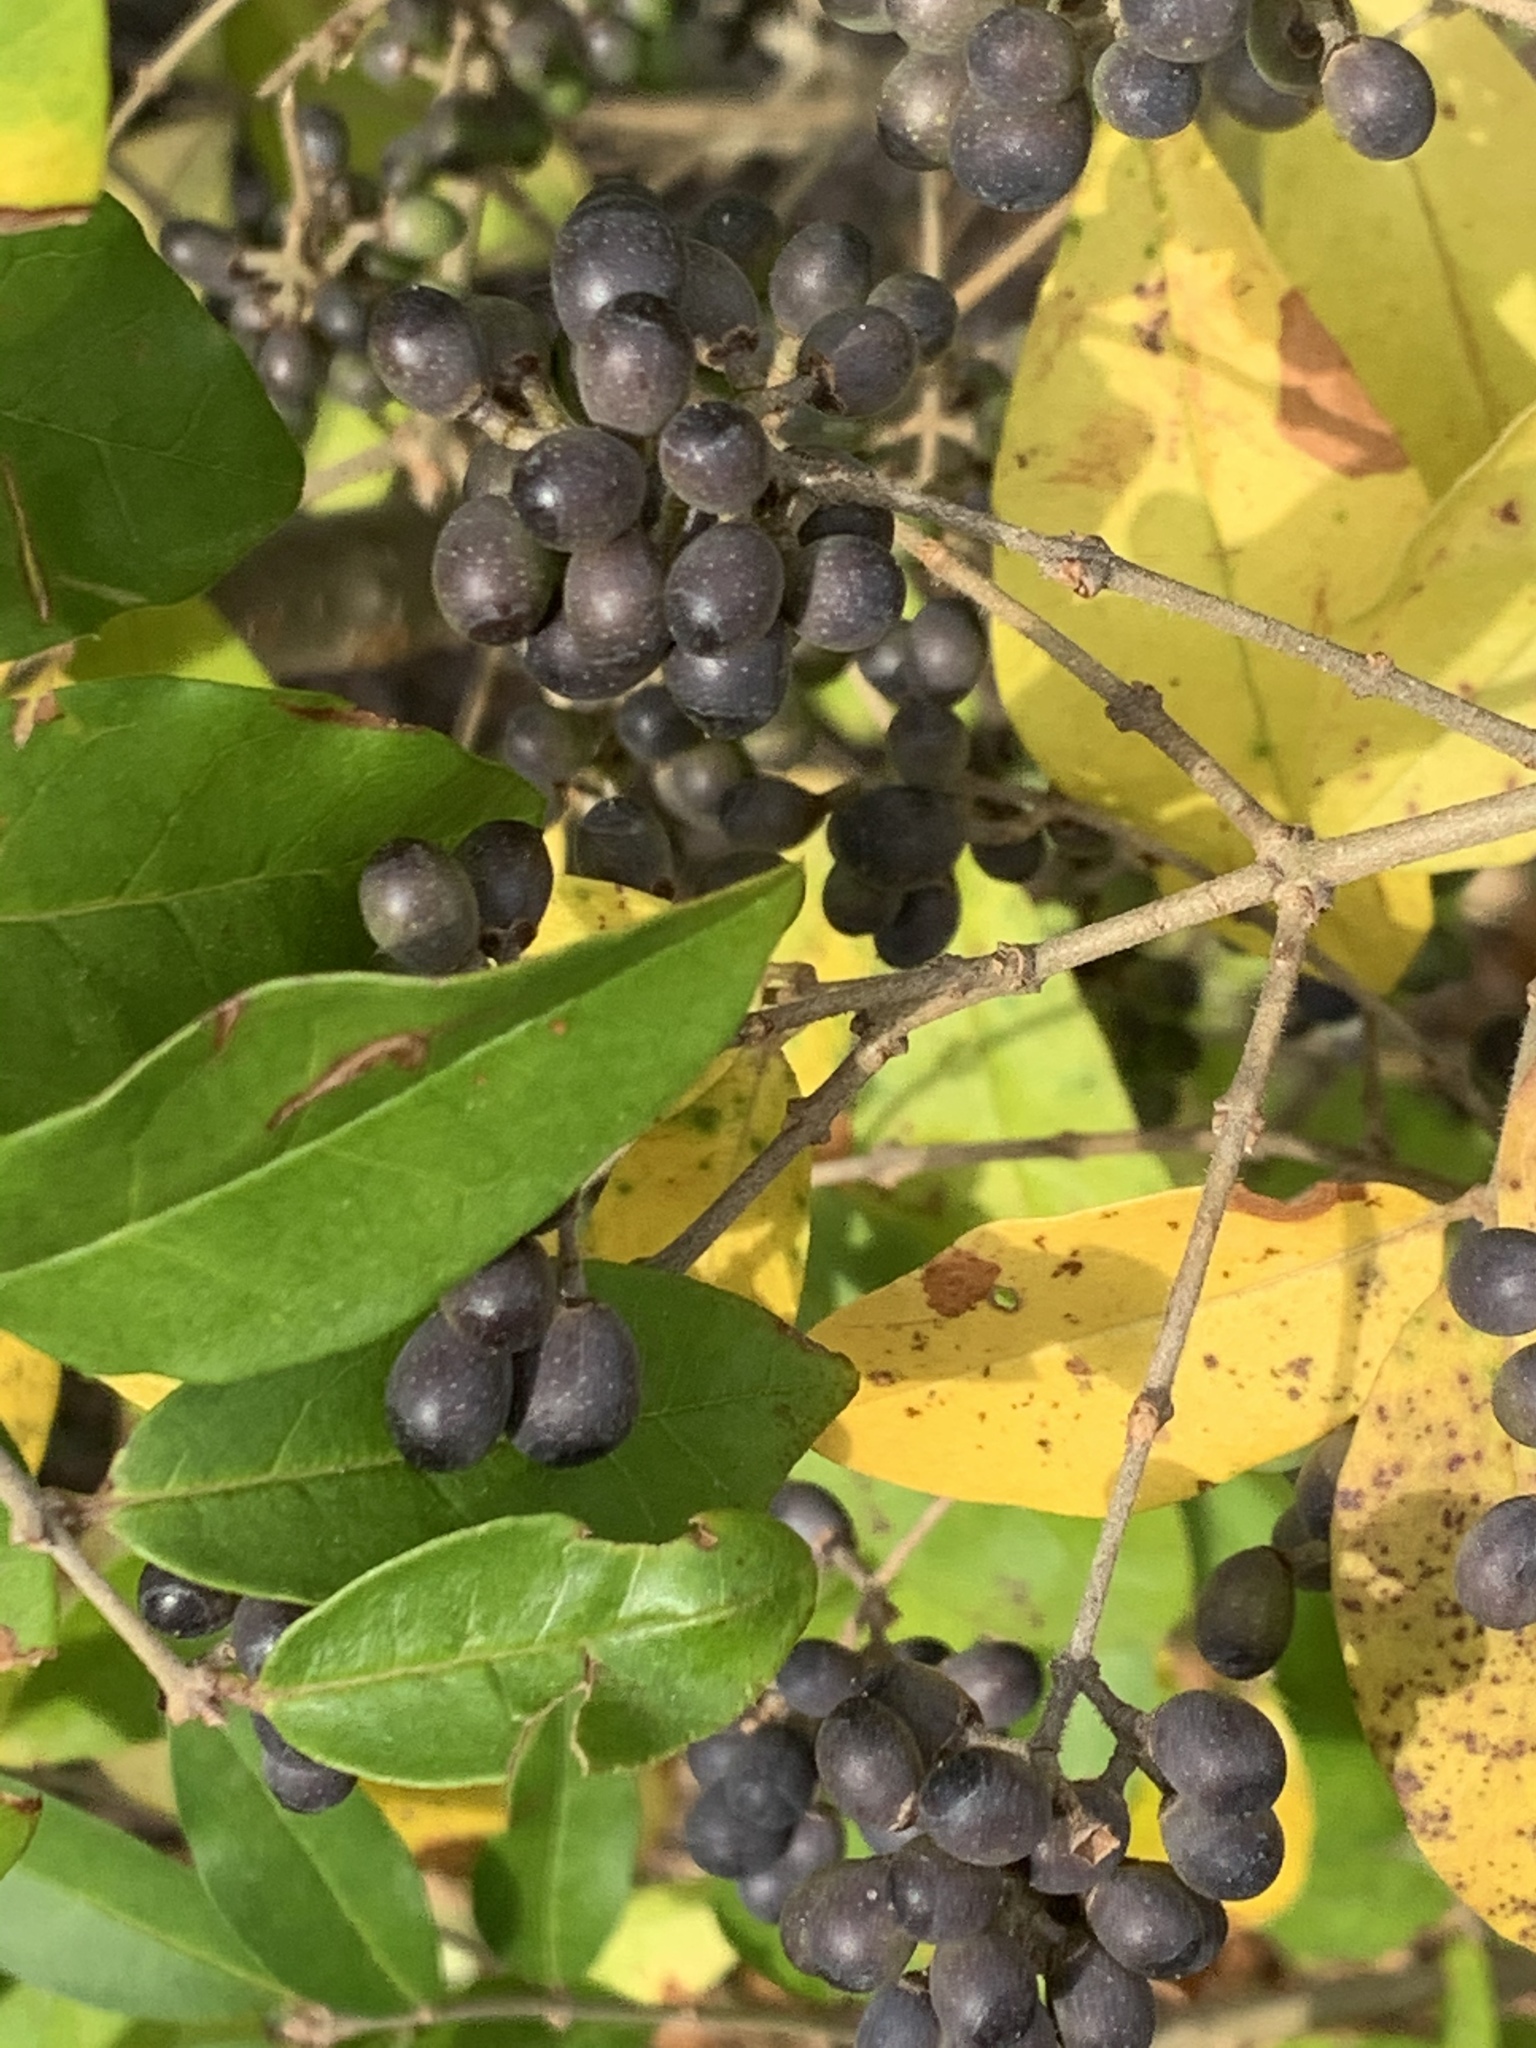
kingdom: Plantae
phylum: Tracheophyta
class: Magnoliopsida
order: Lamiales
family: Oleaceae
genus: Ligustrum
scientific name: Ligustrum obtusifolium
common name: Border privet
